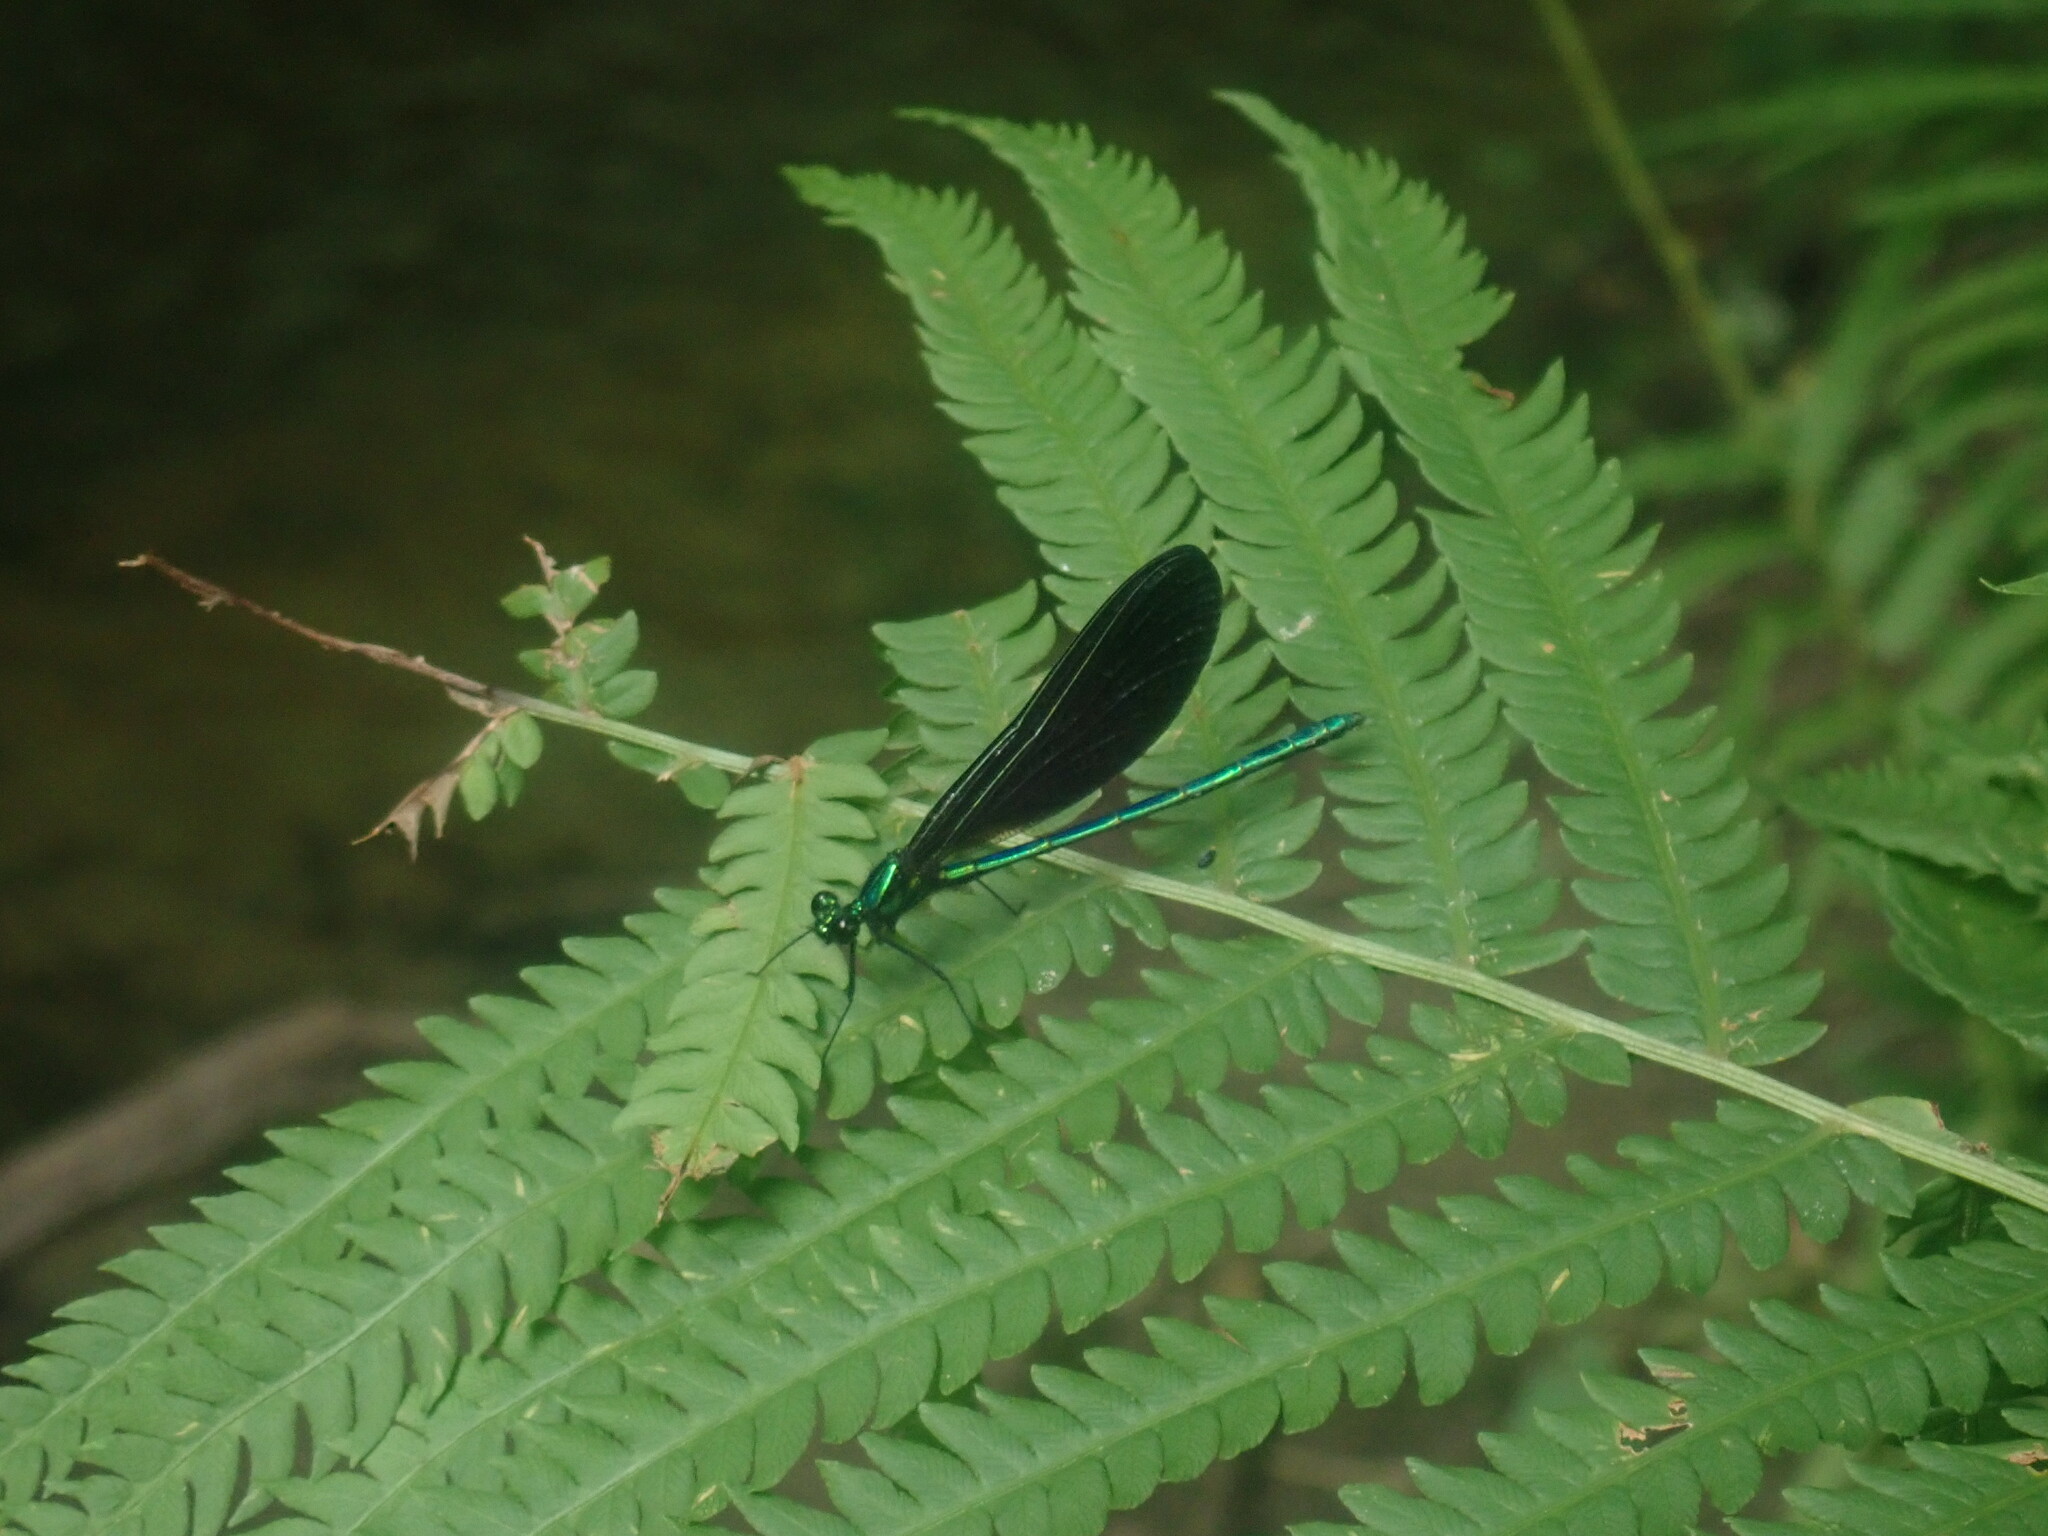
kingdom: Animalia
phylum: Arthropoda
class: Insecta
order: Odonata
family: Calopterygidae
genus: Calopteryx
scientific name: Calopteryx maculata
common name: Ebony jewelwing
